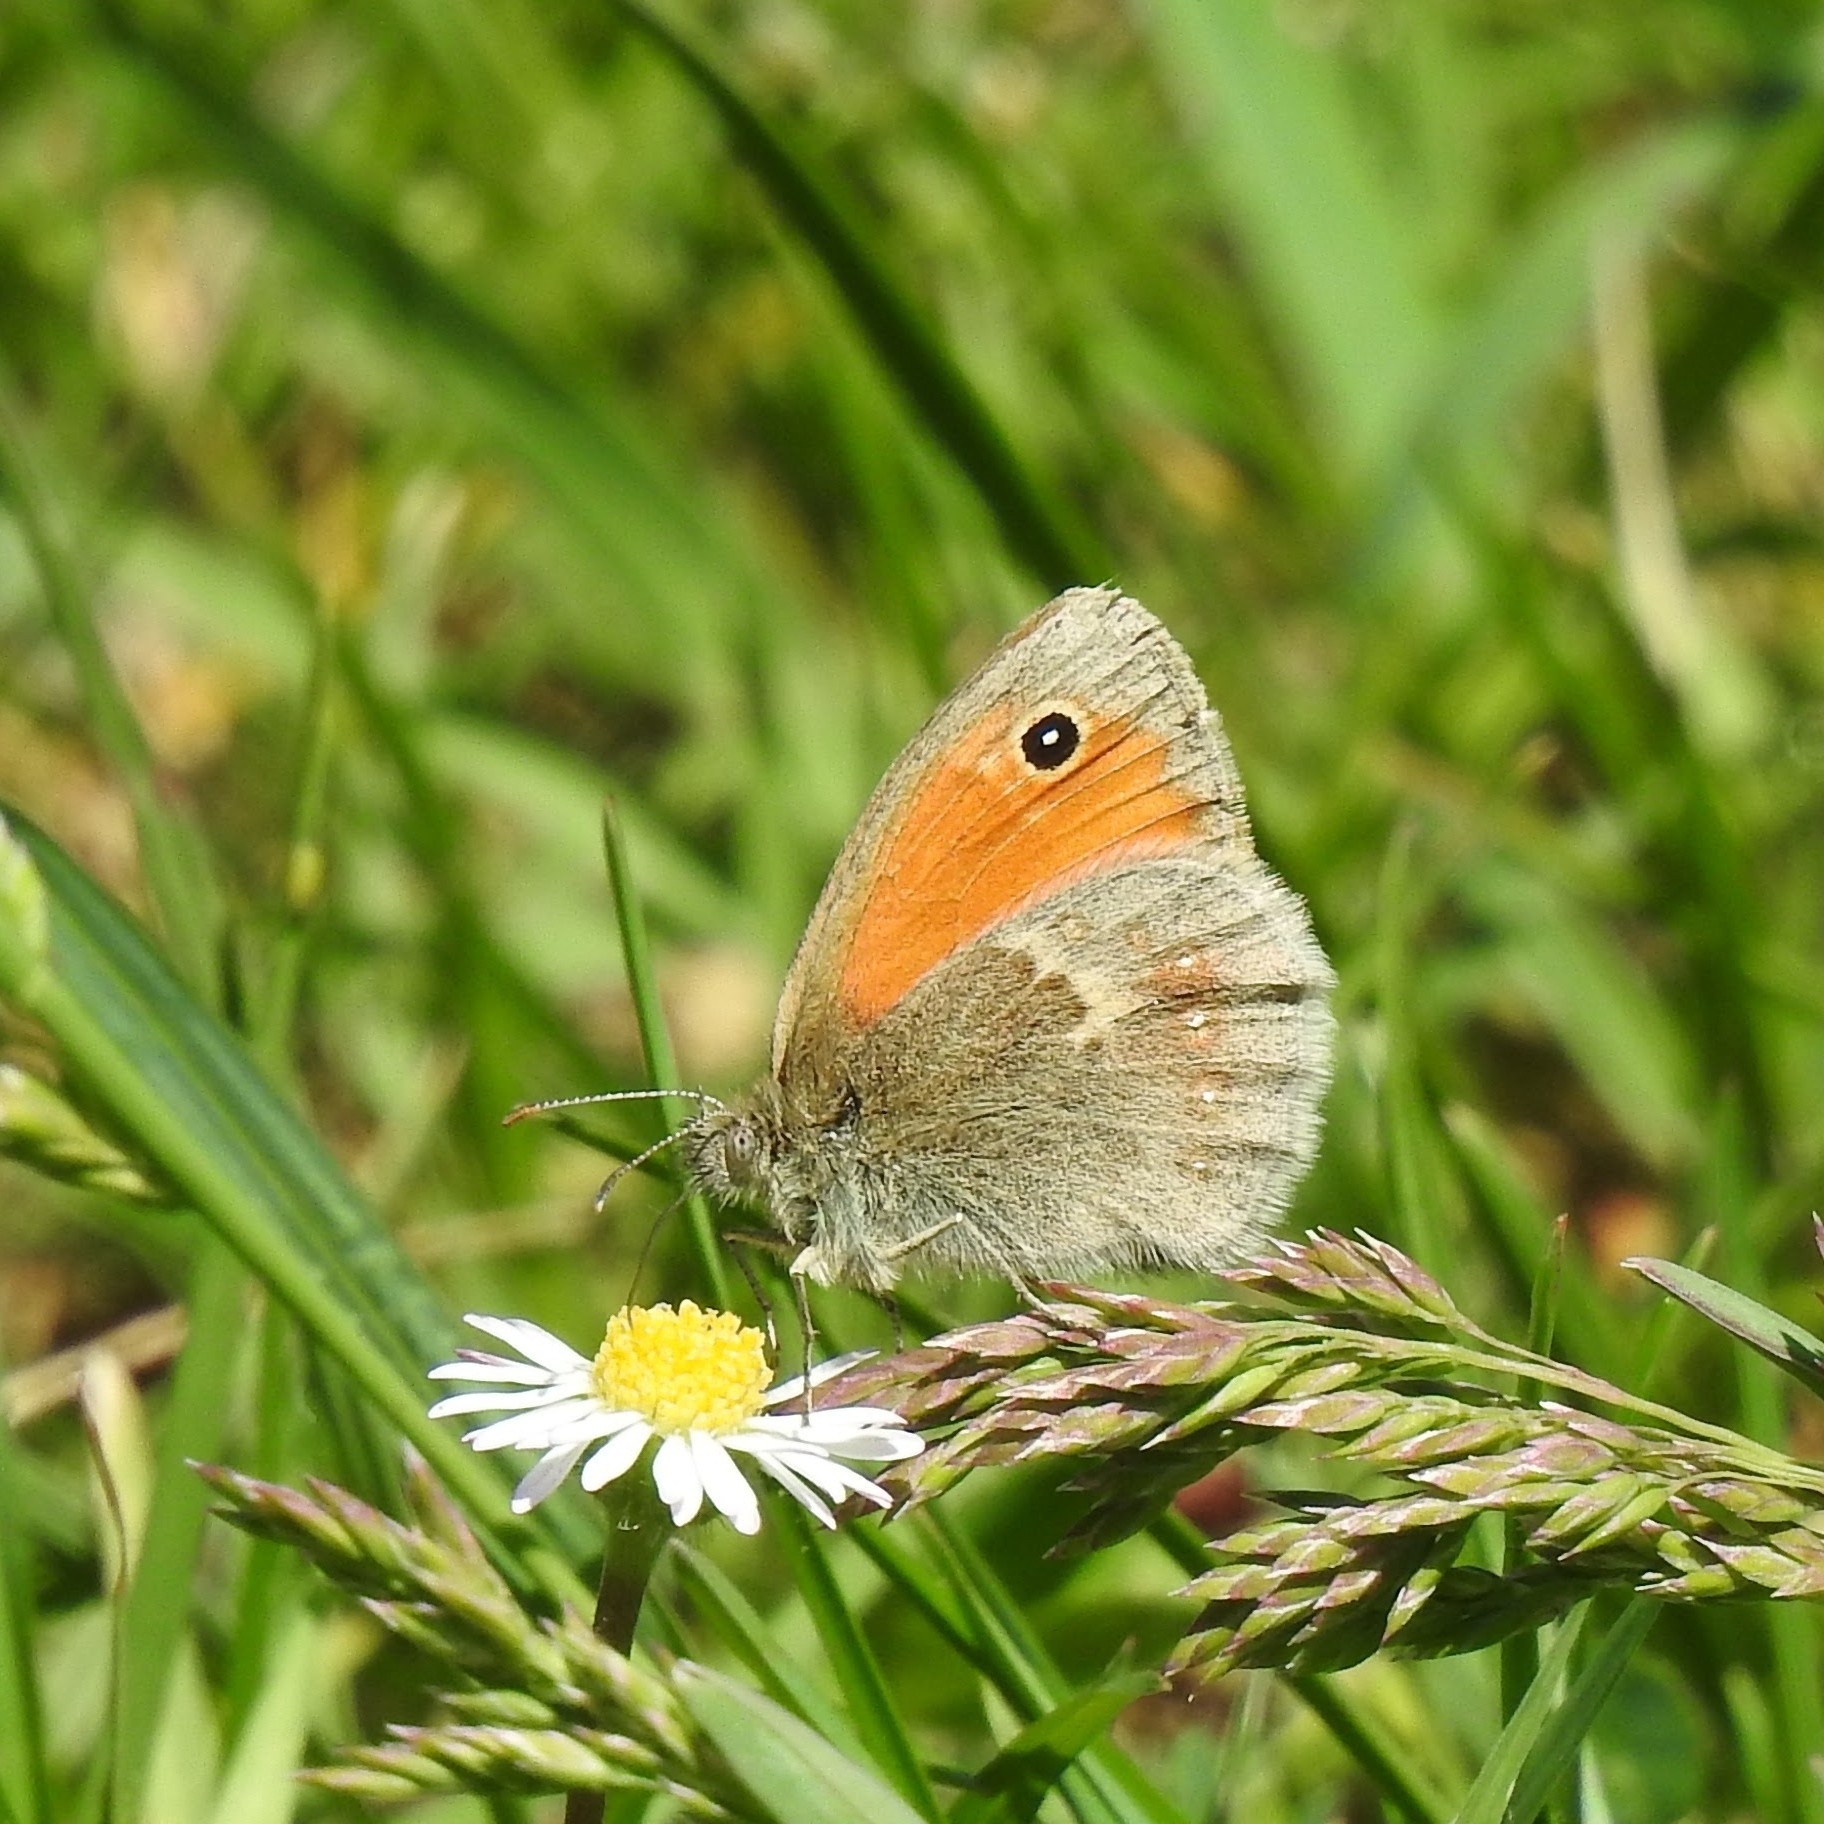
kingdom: Animalia
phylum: Arthropoda
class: Insecta
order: Lepidoptera
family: Nymphalidae
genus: Coenonympha
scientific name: Coenonympha pamphilus
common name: Small heath
